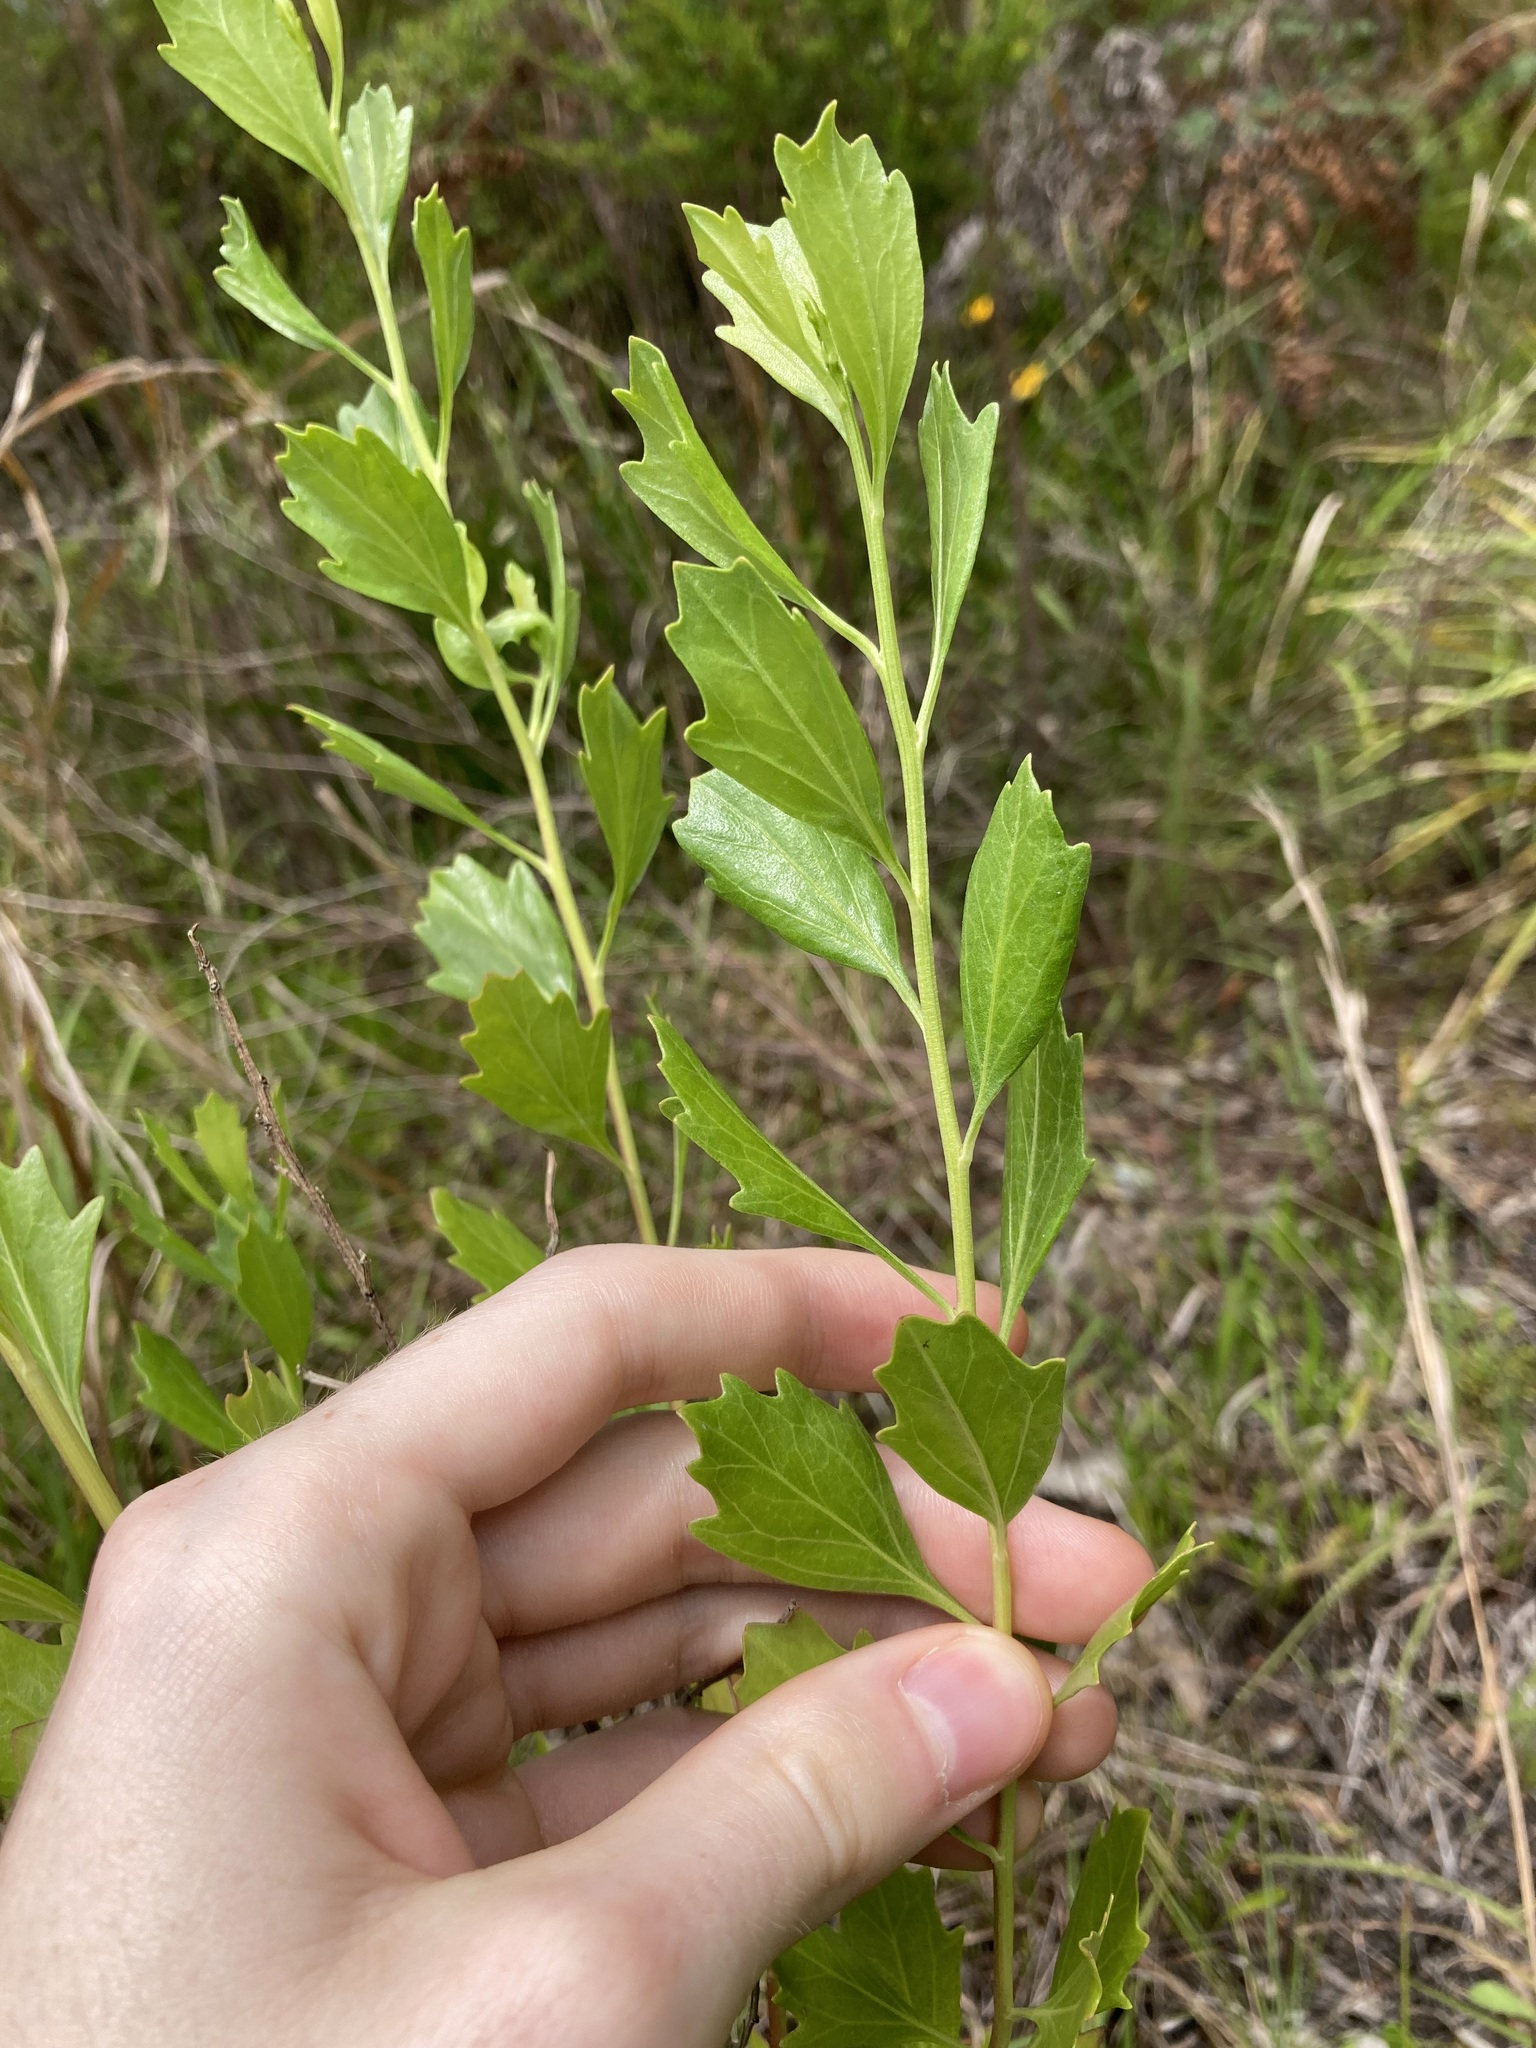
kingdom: Plantae
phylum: Tracheophyta
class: Magnoliopsida
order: Asterales
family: Asteraceae
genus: Baccharis
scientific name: Baccharis halimifolia
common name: Eastern baccharis
